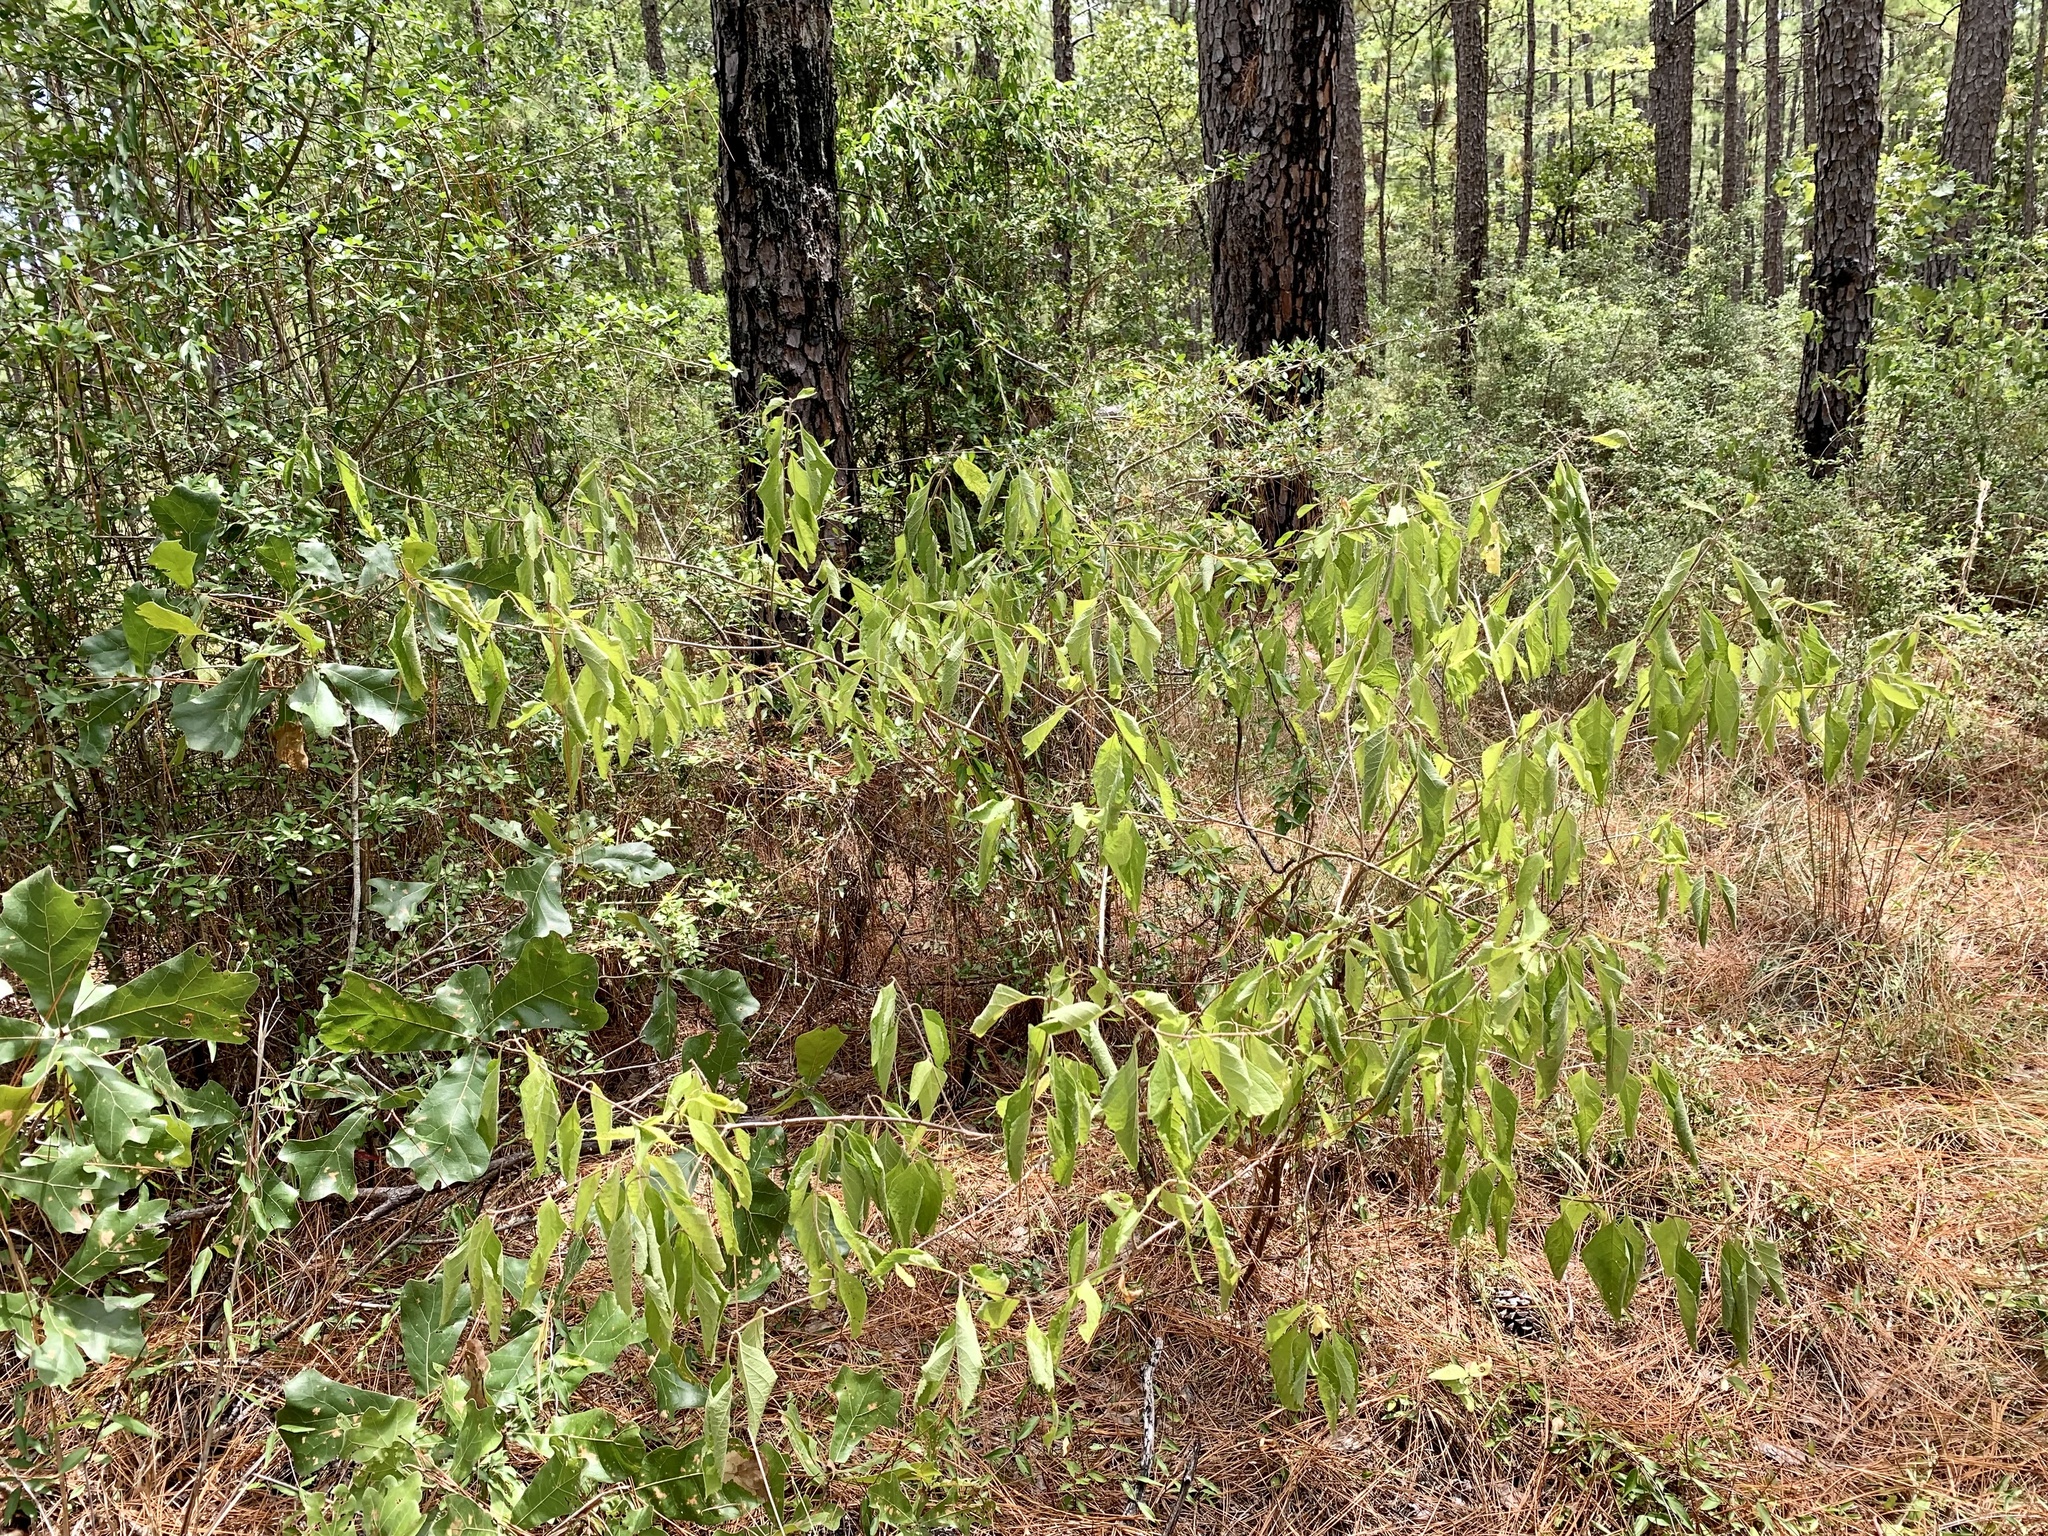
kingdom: Plantae
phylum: Tracheophyta
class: Magnoliopsida
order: Lamiales
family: Lamiaceae
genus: Callicarpa
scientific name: Callicarpa americana
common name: American beautyberry
